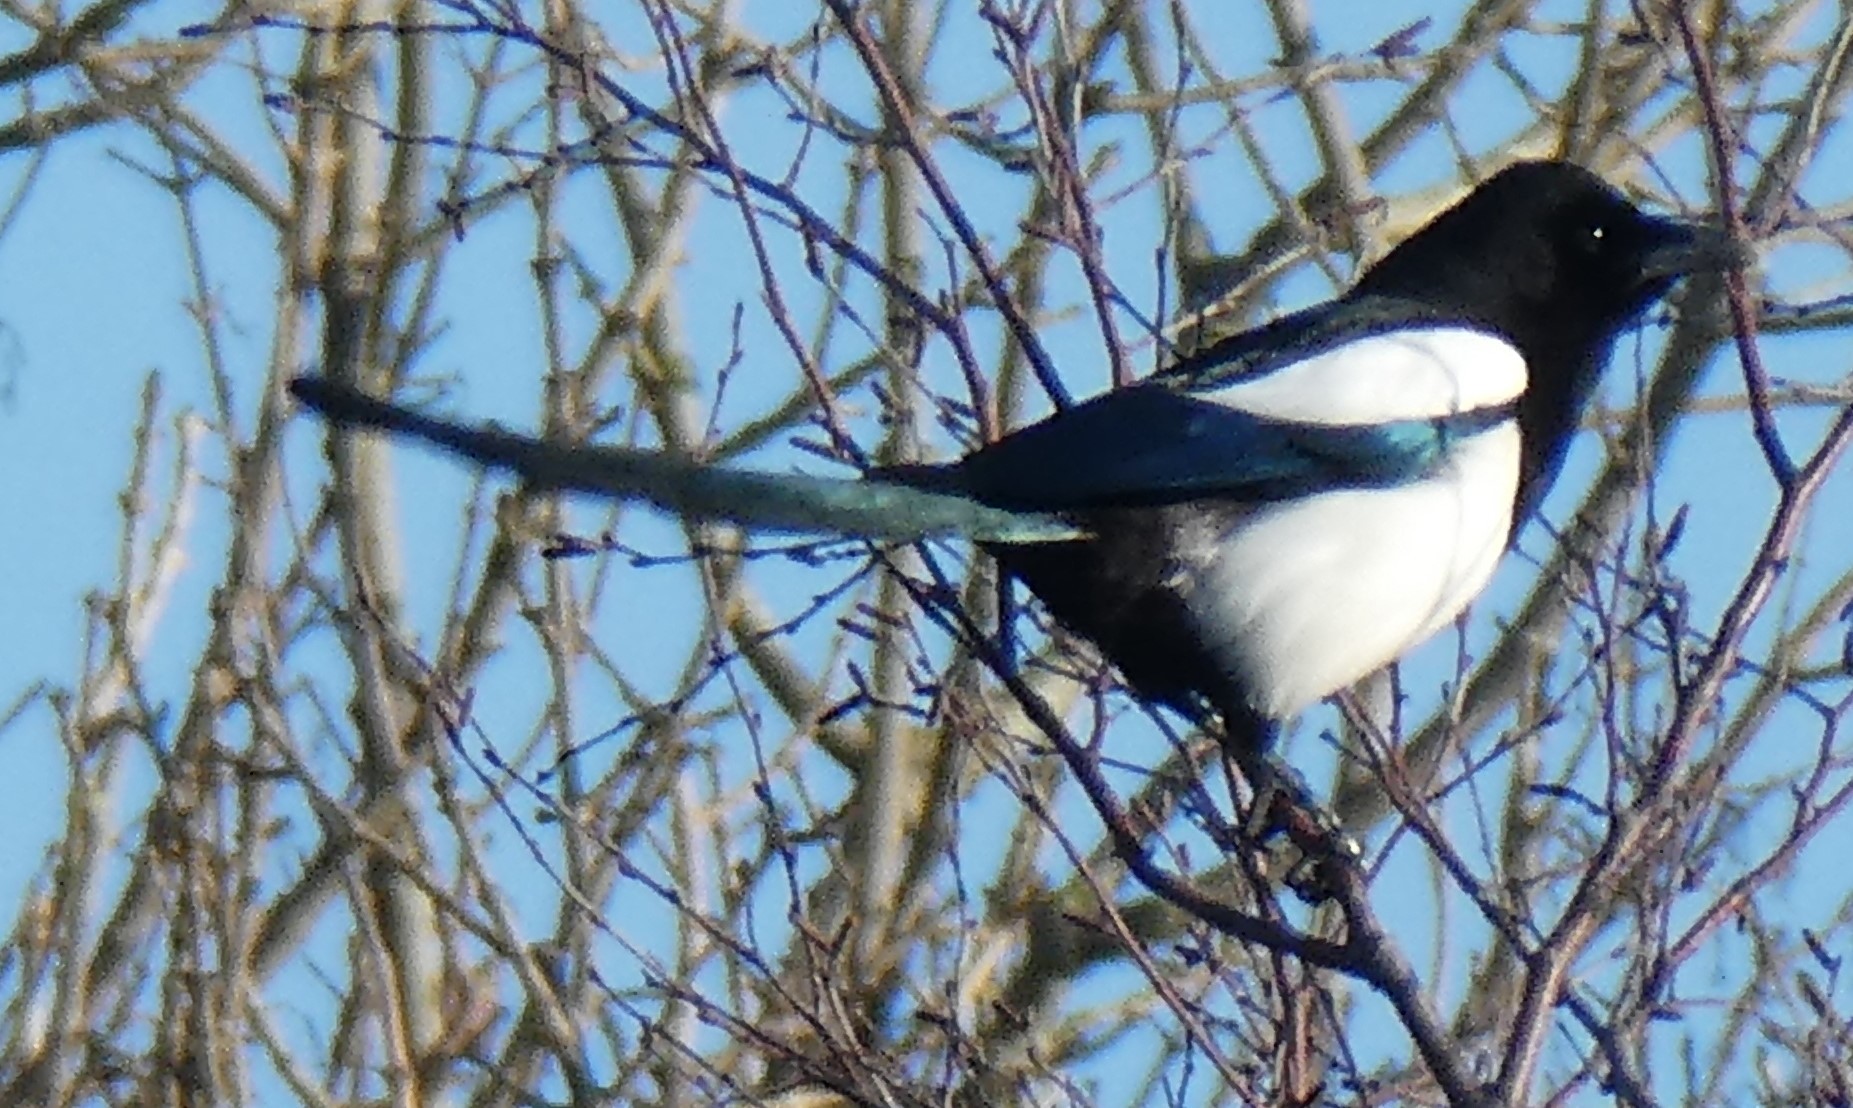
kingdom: Animalia
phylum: Chordata
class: Aves
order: Passeriformes
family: Corvidae
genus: Pica
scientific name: Pica pica
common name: Eurasian magpie
